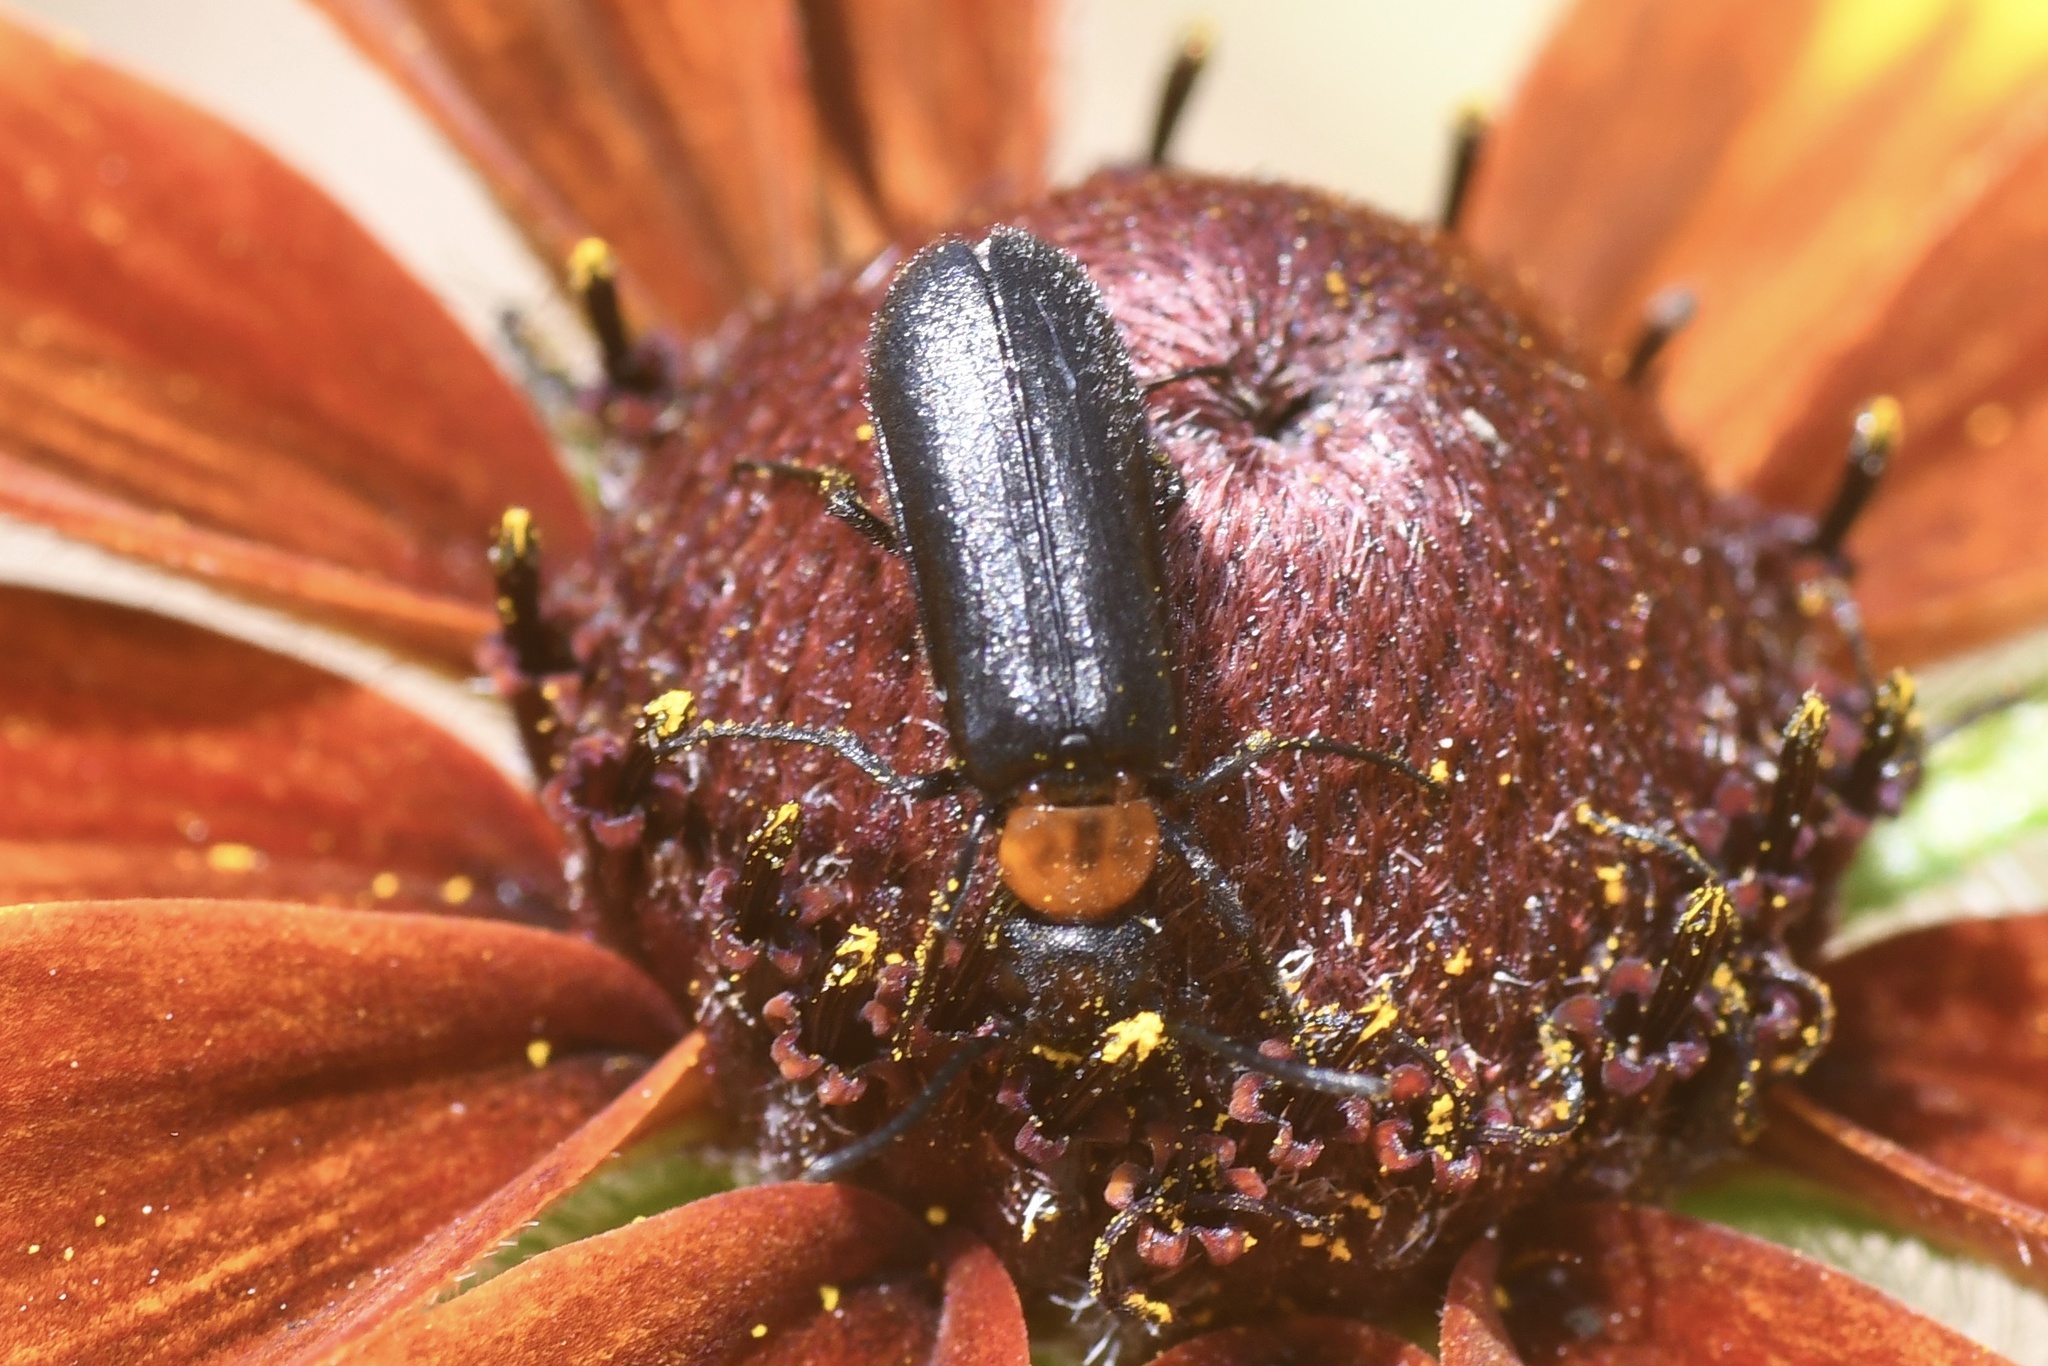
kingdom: Animalia
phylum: Arthropoda
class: Insecta
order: Coleoptera
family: Meloidae
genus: Nemognatha
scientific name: Nemognatha nemorensis
